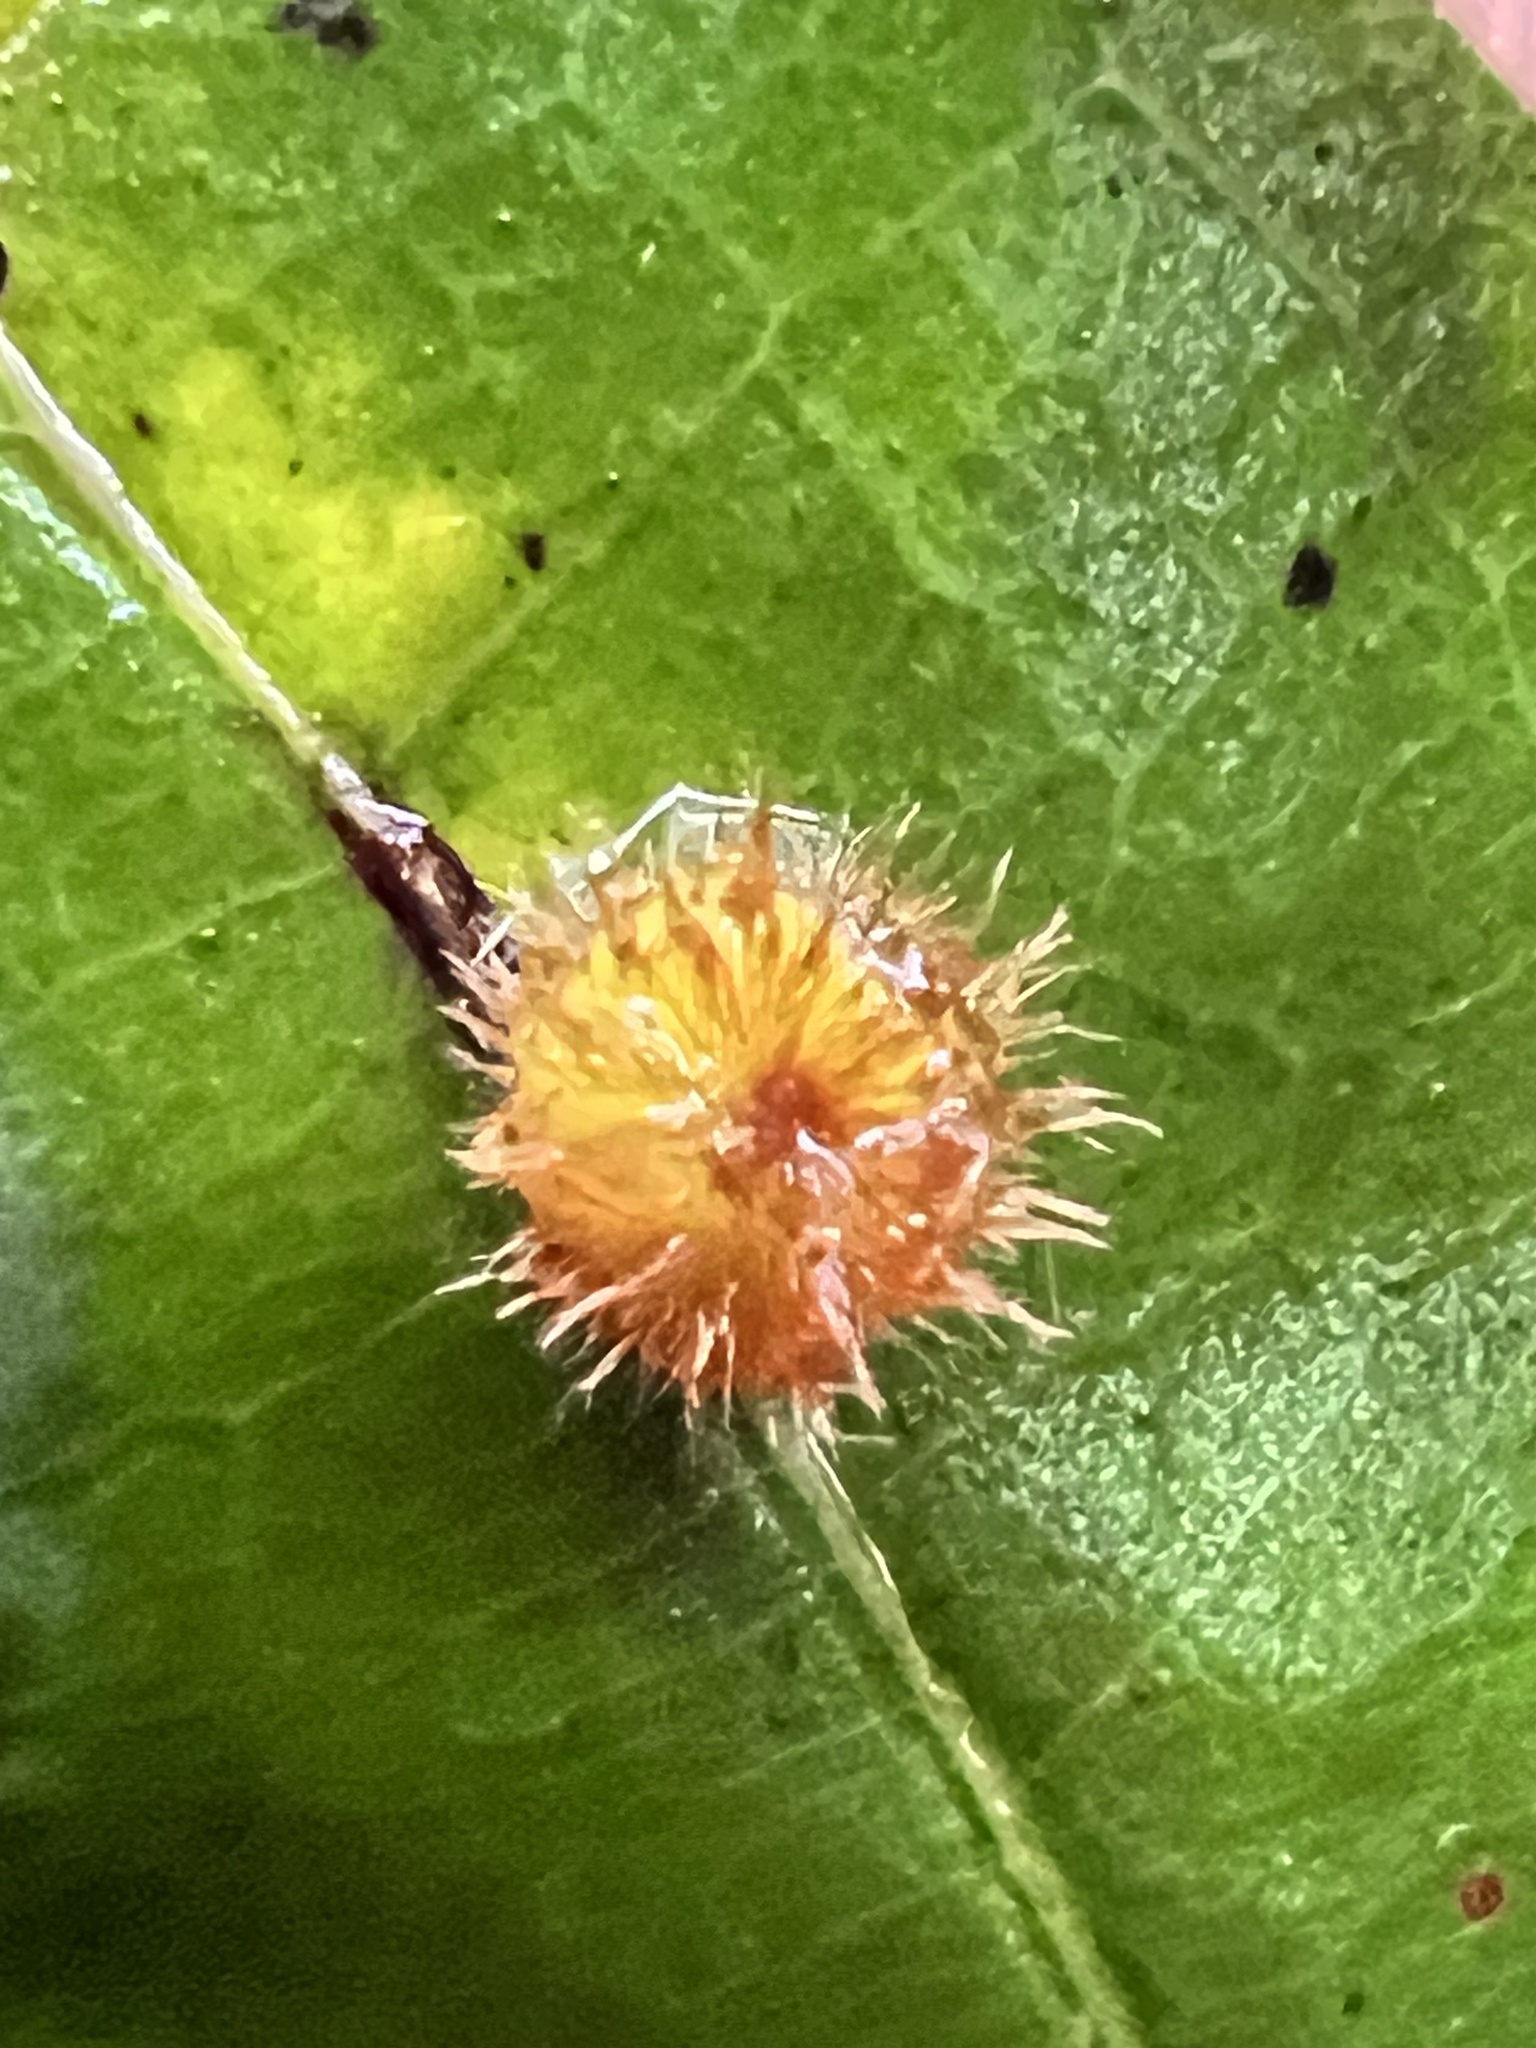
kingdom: Animalia
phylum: Arthropoda
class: Insecta
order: Hymenoptera
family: Cynipidae
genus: Callirhytis
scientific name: Callirhytis
